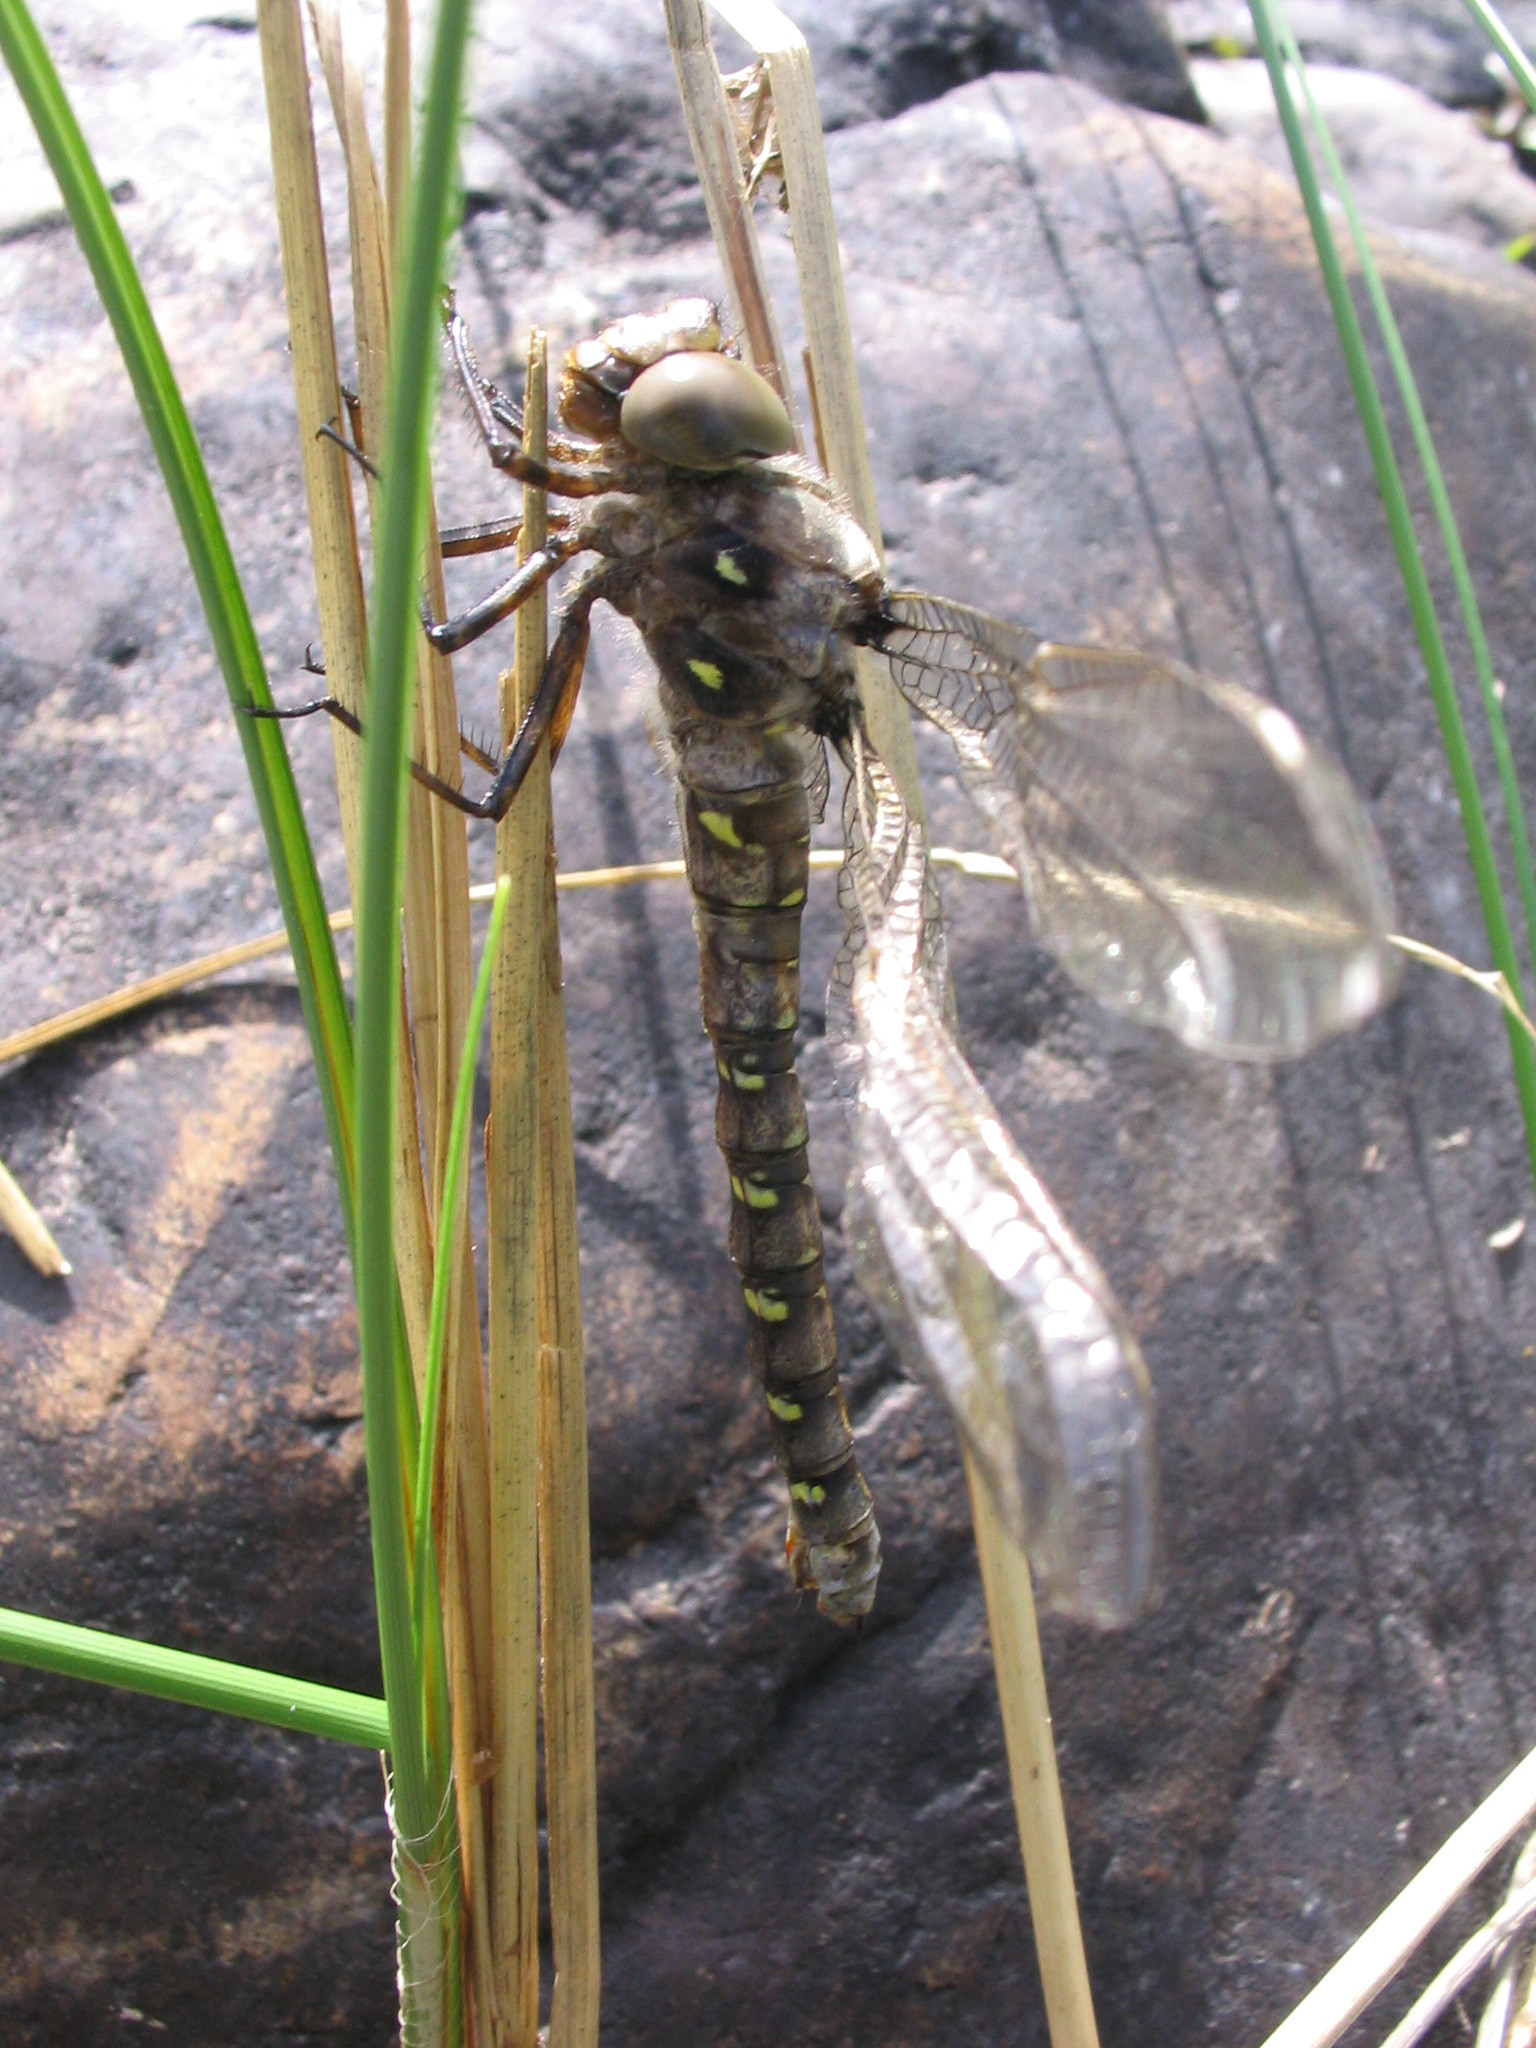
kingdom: Animalia
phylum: Arthropoda
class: Insecta
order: Odonata
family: Aeshnidae
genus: Boyeria
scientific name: Boyeria grafiana
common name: Ocellated darner
